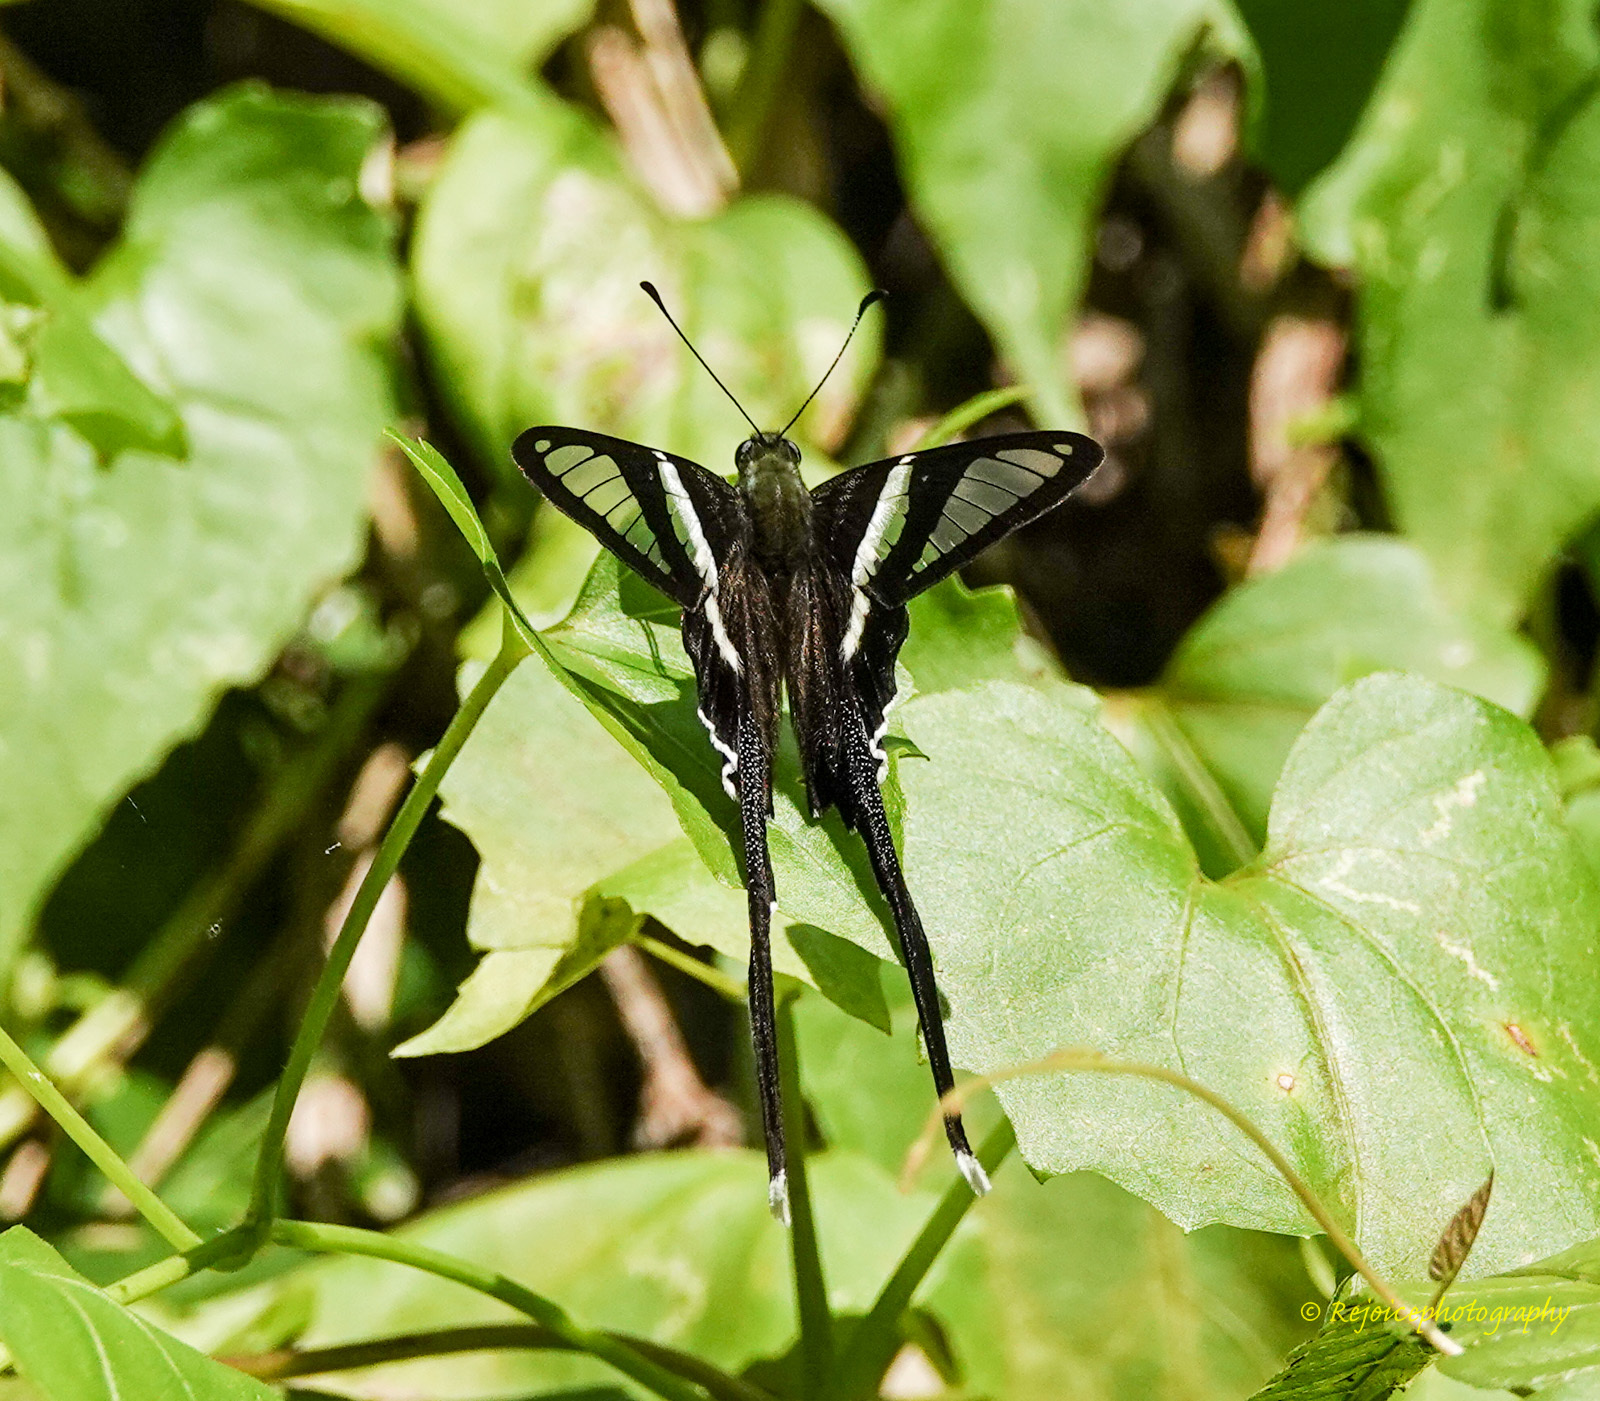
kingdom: Animalia
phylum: Arthropoda
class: Insecta
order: Lepidoptera
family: Papilionidae
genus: Lamproptera
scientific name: Lamproptera curius
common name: White dragontail
